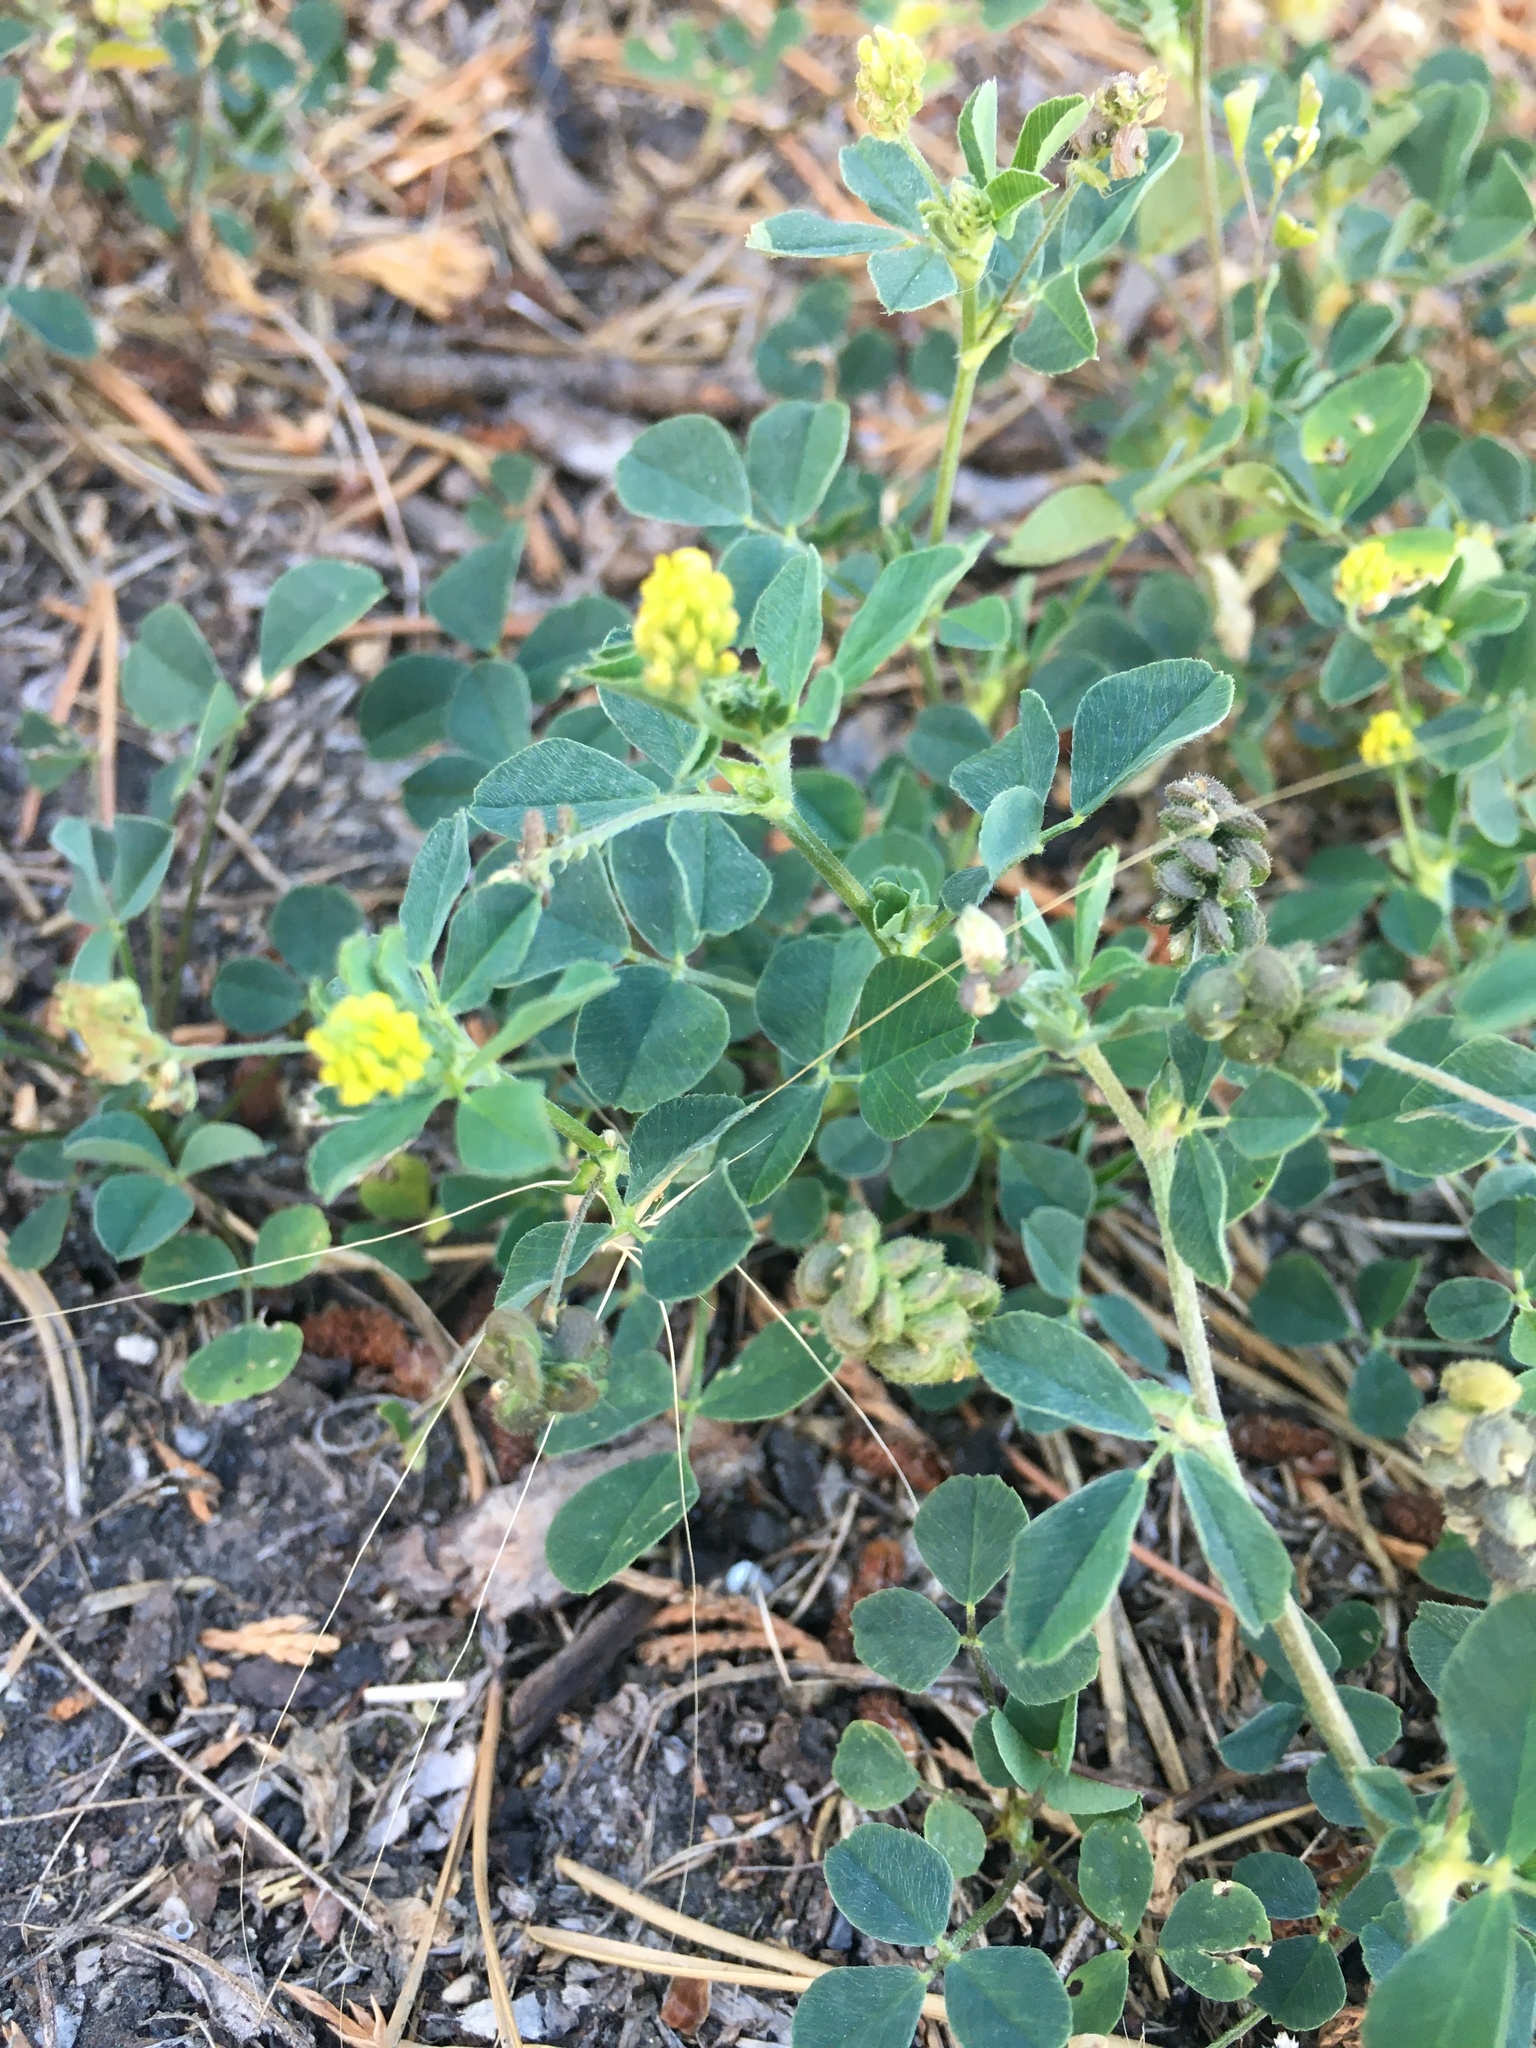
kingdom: Plantae
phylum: Tracheophyta
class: Magnoliopsida
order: Fabales
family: Fabaceae
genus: Medicago
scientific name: Medicago lupulina
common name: Black medick
